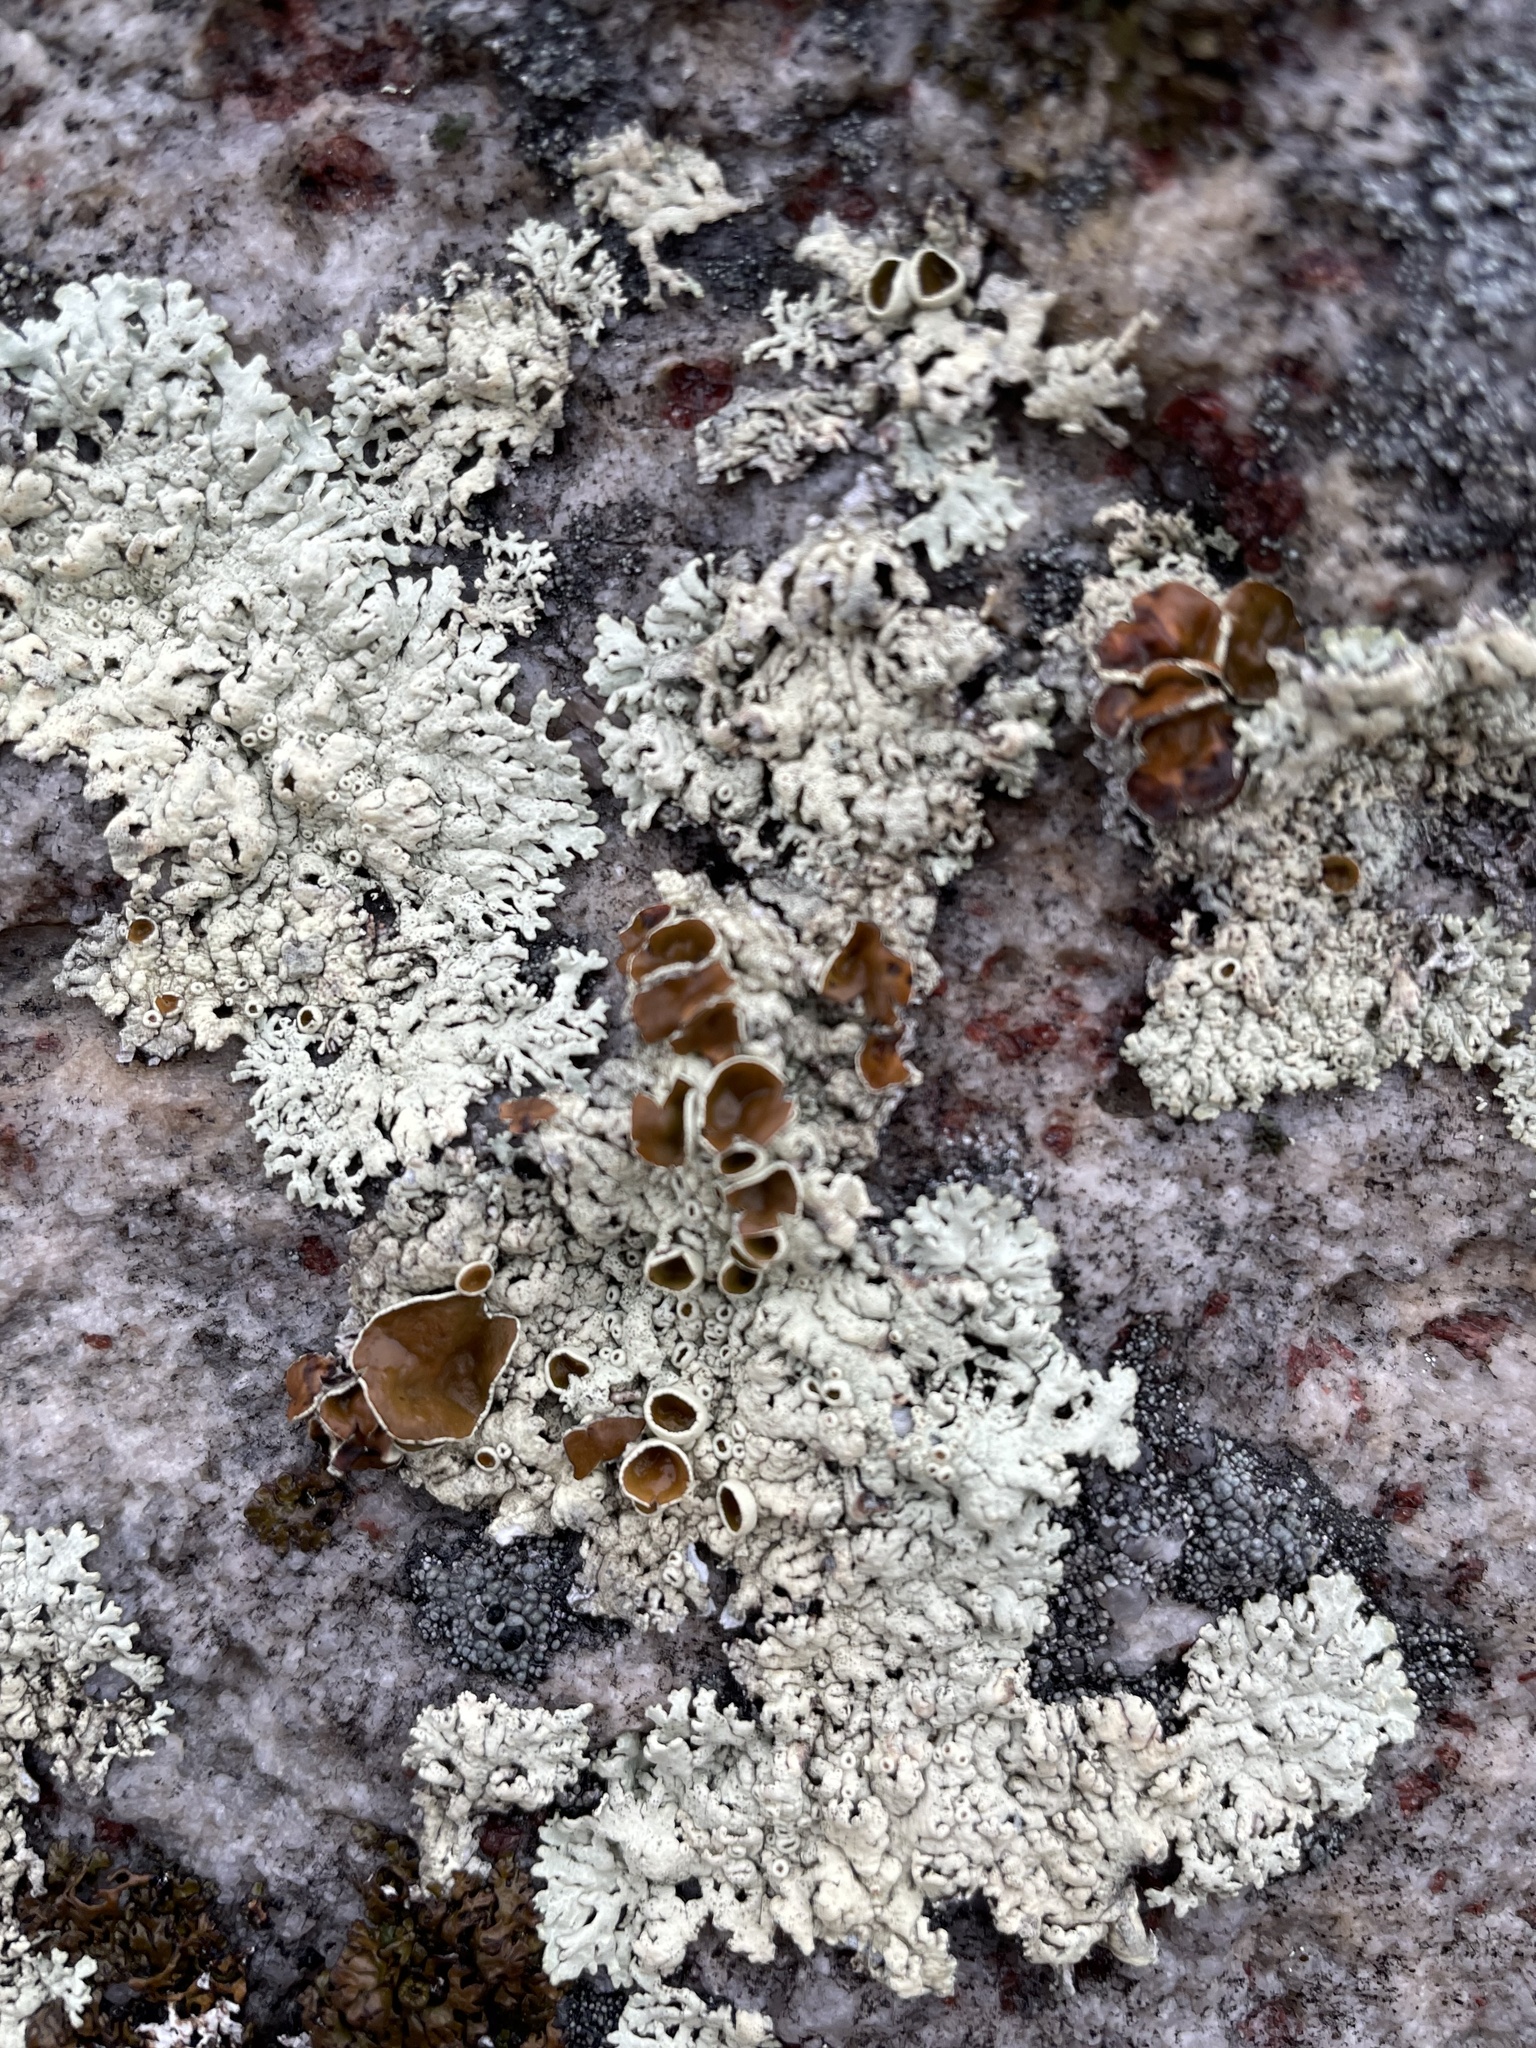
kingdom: Fungi
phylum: Ascomycota
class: Lecanoromycetes
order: Lecanorales
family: Parmeliaceae
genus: Arctoparmelia
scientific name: Arctoparmelia centrifuga
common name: Concentric ring lichen
